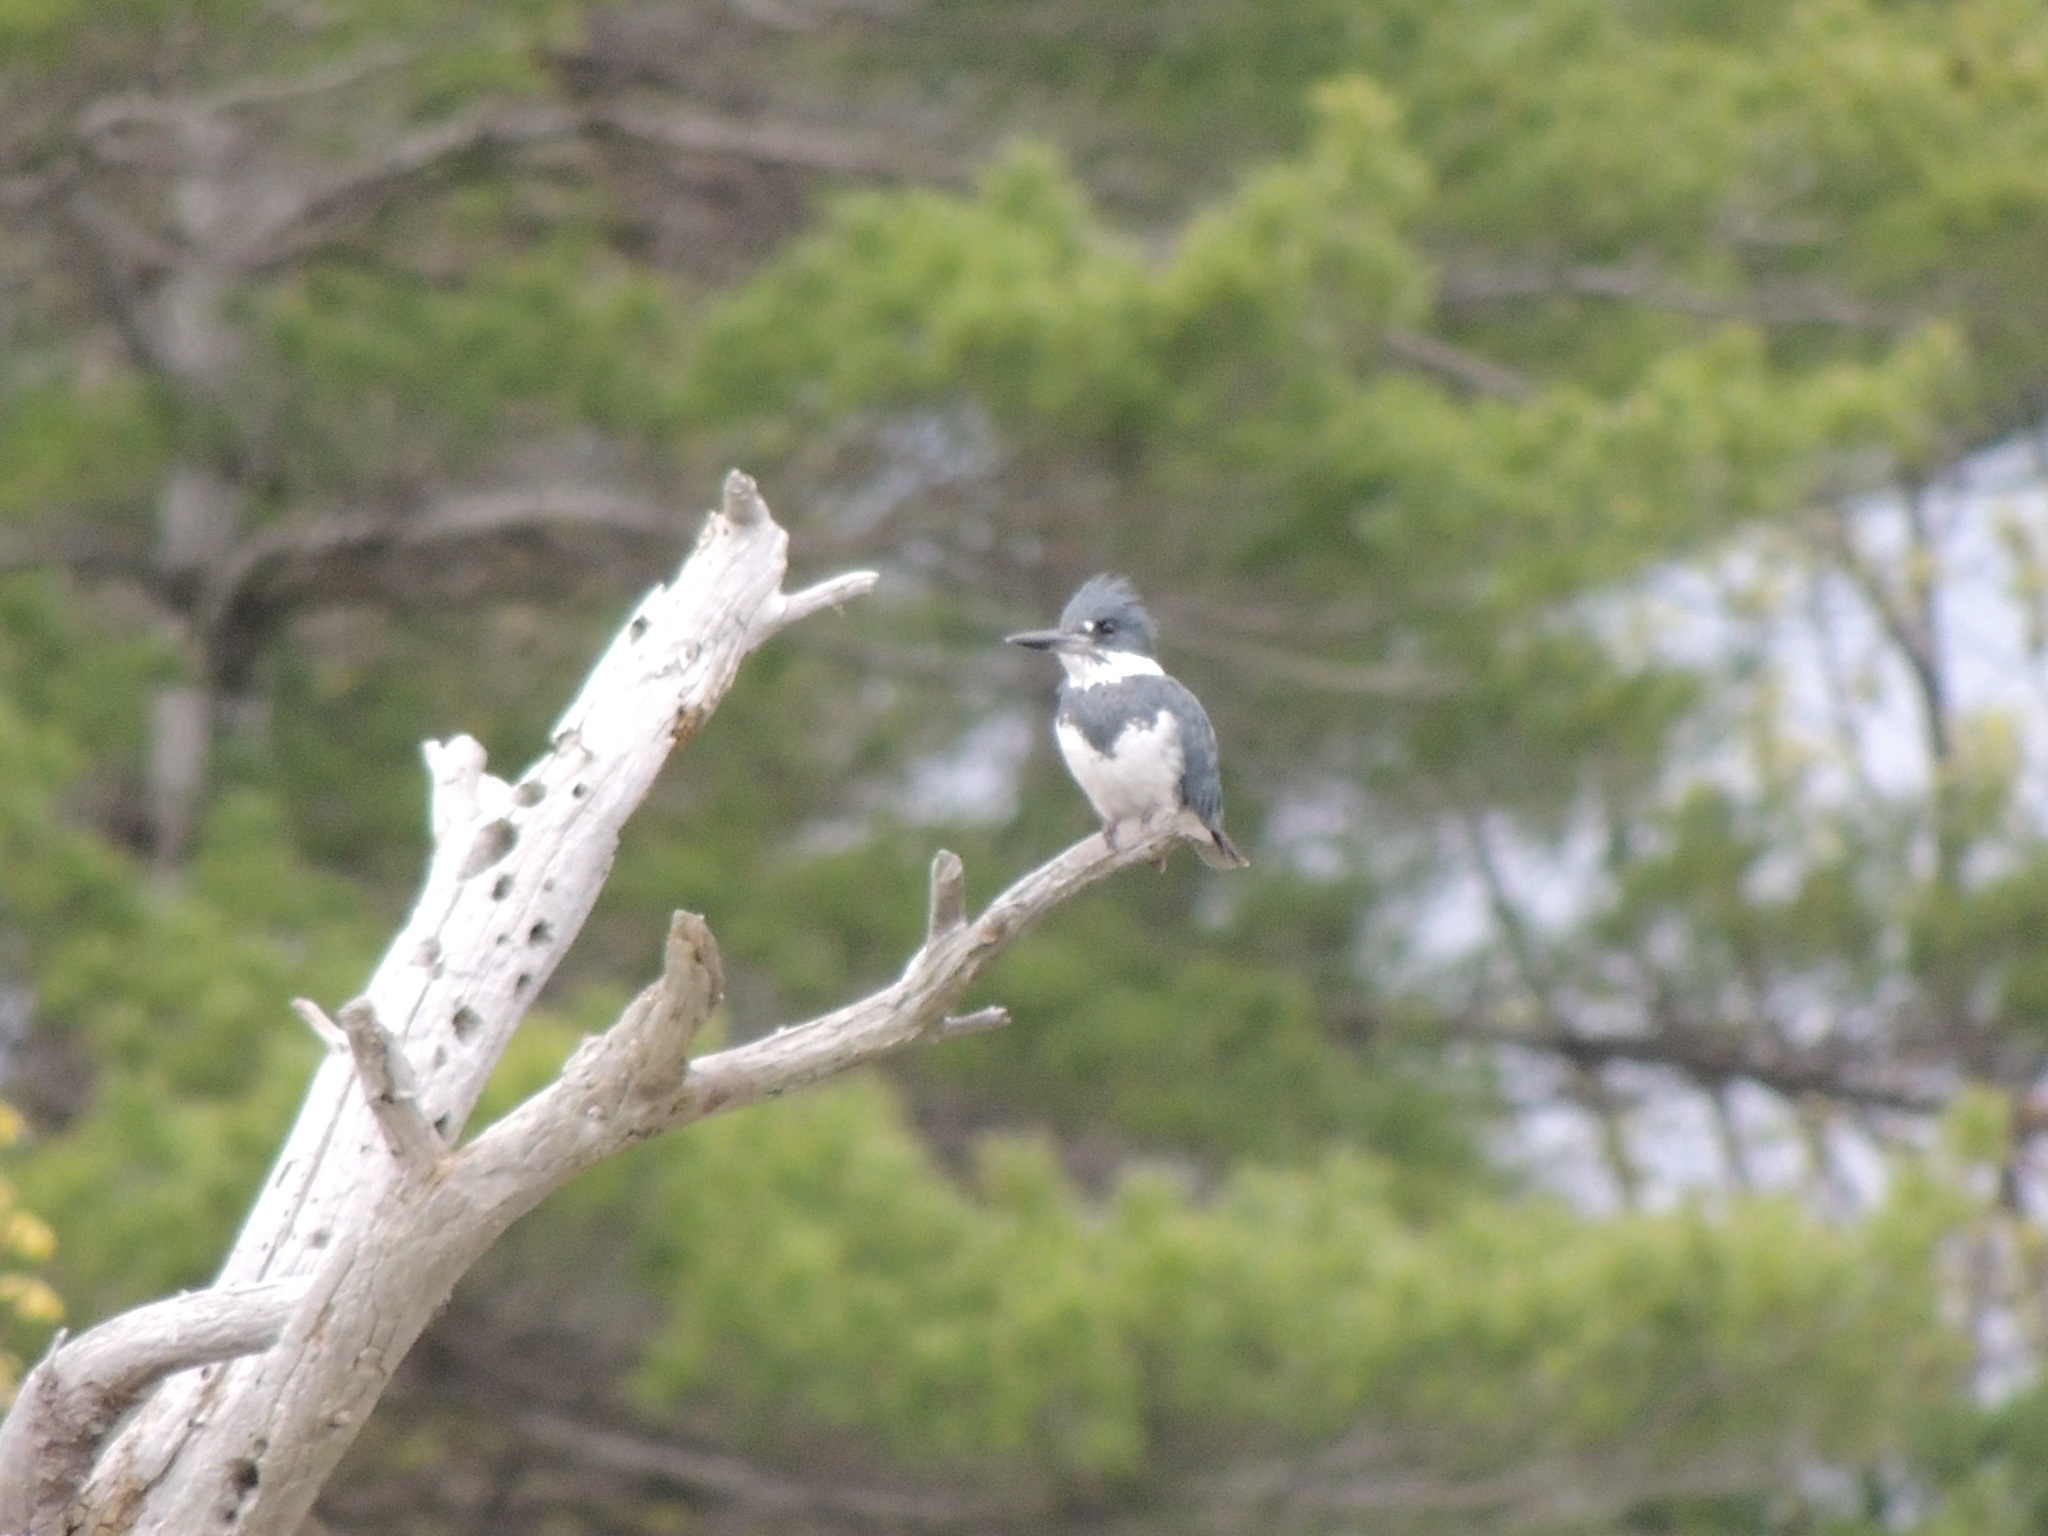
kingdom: Animalia
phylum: Chordata
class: Aves
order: Coraciiformes
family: Alcedinidae
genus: Megaceryle
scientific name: Megaceryle alcyon
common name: Belted kingfisher
